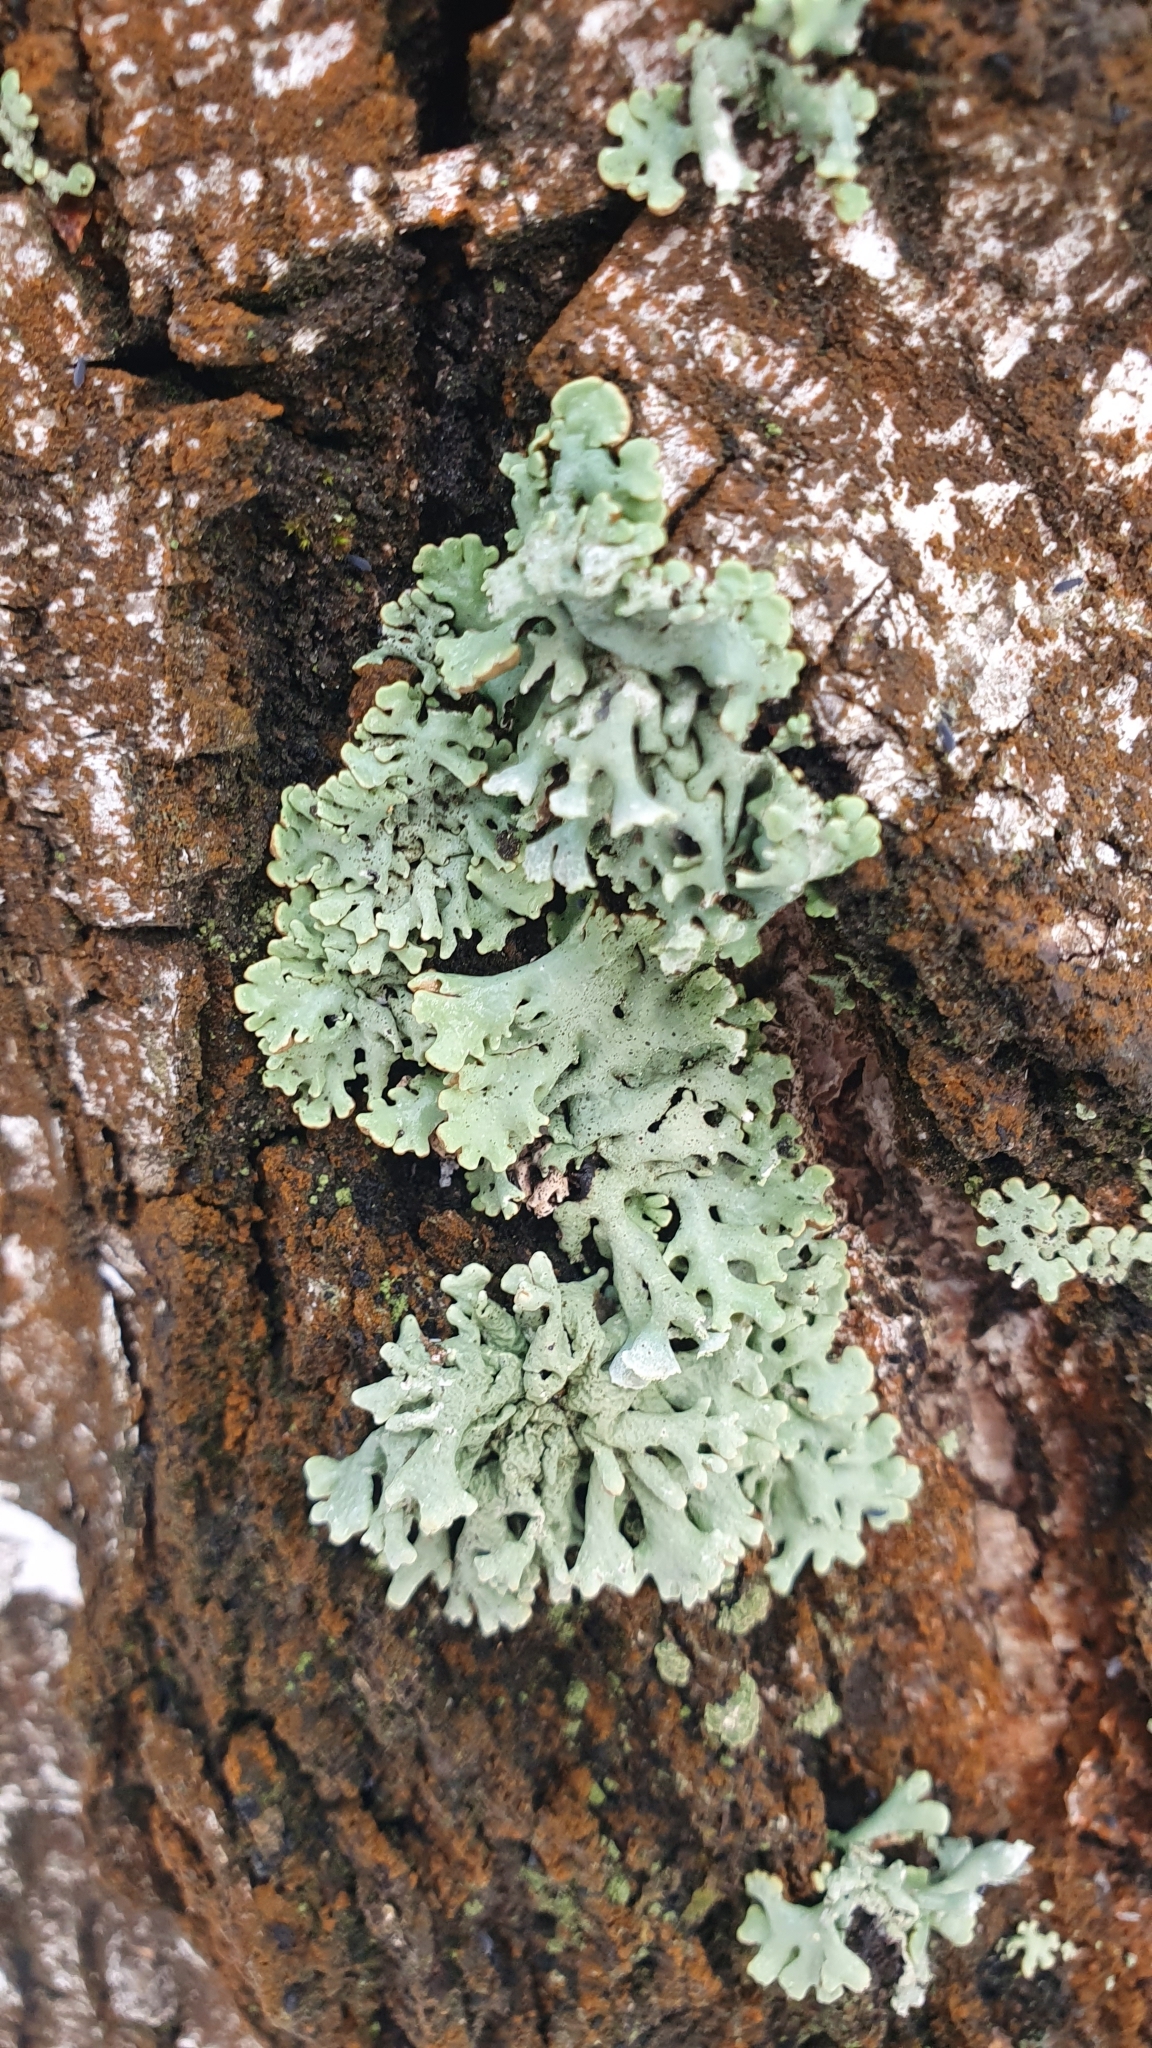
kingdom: Fungi
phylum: Ascomycota
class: Lecanoromycetes
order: Lecanorales
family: Parmeliaceae
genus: Hypogymnia
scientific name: Hypogymnia physodes
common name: Dark crottle
